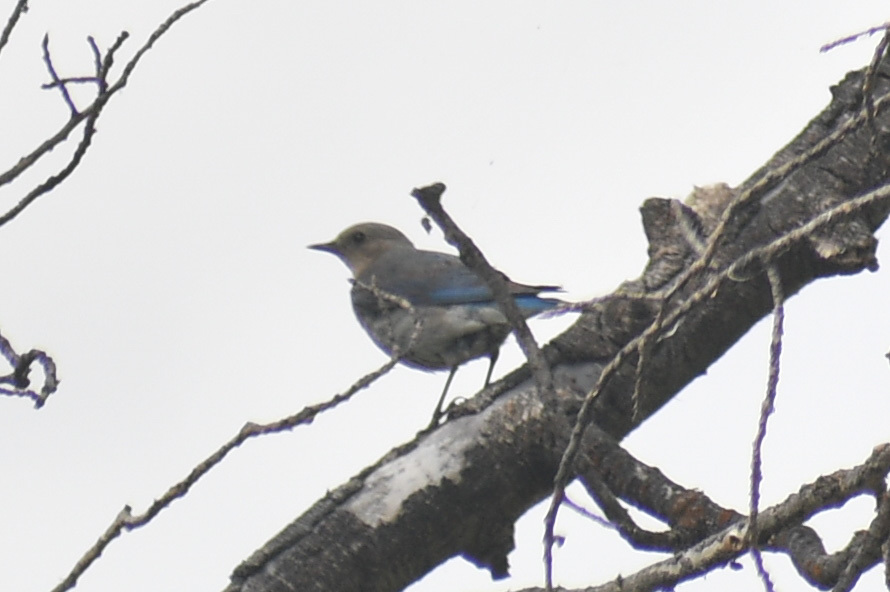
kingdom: Animalia
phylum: Chordata
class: Aves
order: Passeriformes
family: Turdidae
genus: Sialia
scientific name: Sialia currucoides
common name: Mountain bluebird
